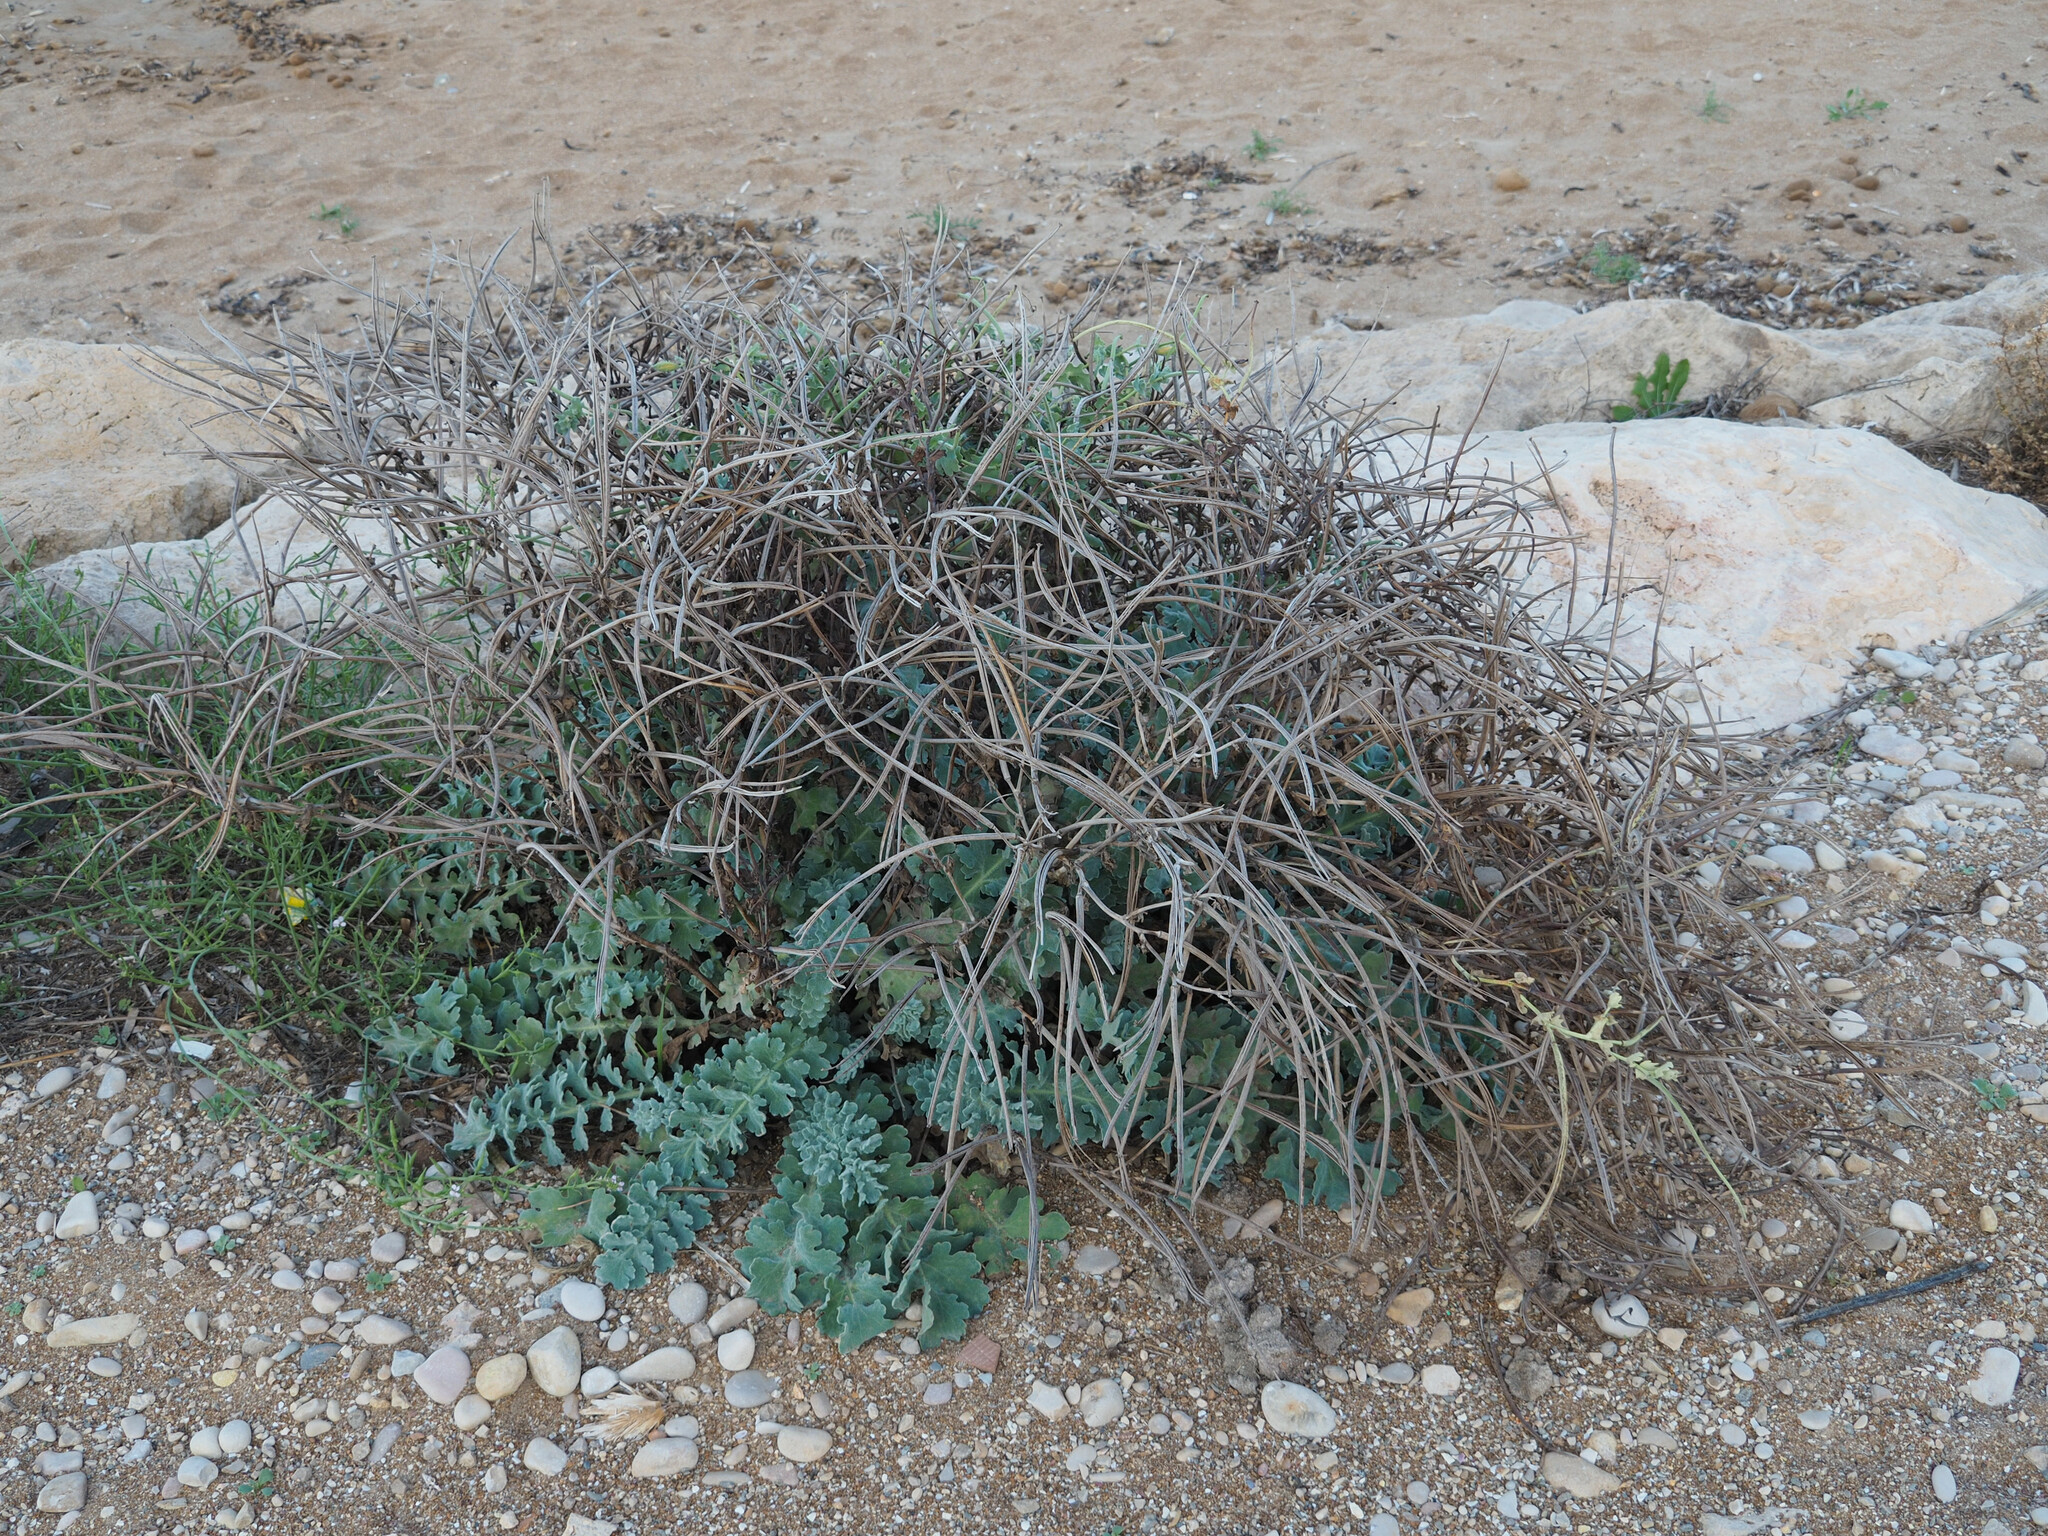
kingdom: Plantae
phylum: Tracheophyta
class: Magnoliopsida
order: Ranunculales
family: Papaveraceae
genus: Glaucium
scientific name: Glaucium flavum
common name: Yellow horned-poppy
